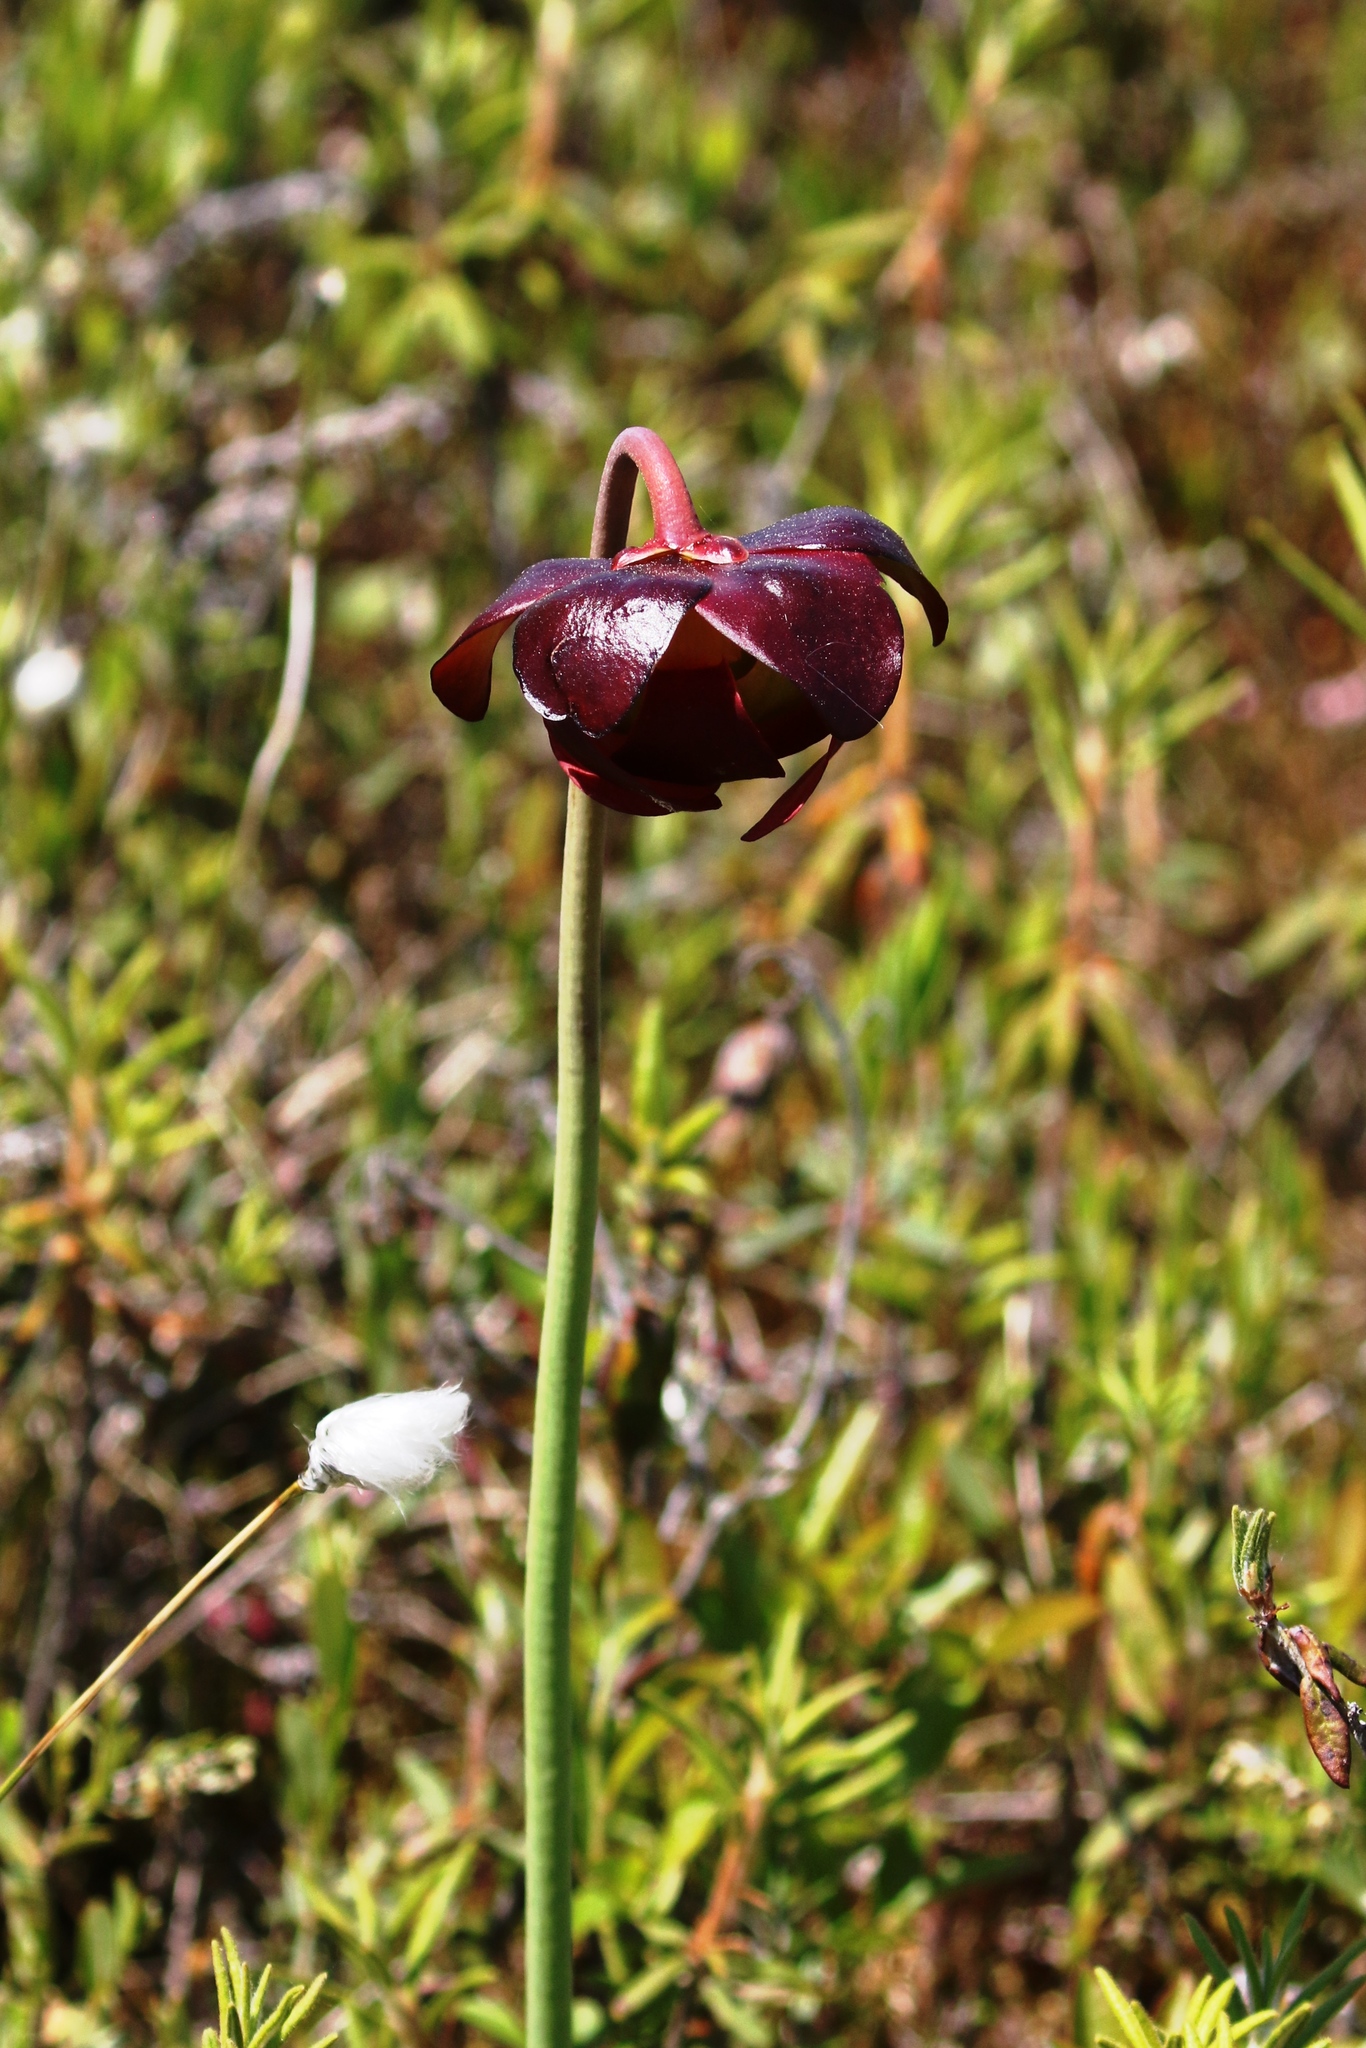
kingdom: Plantae
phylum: Tracheophyta
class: Magnoliopsida
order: Ericales
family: Sarraceniaceae
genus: Sarracenia
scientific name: Sarracenia purpurea
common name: Pitcherplant
